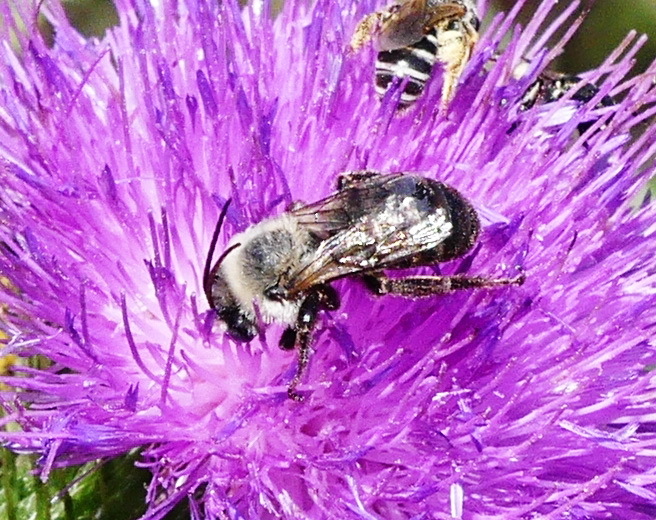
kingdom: Animalia
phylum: Arthropoda
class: Insecta
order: Hymenoptera
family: Apidae
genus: Melissodes
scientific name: Melissodes desponsus
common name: Thistle long-horned bee
